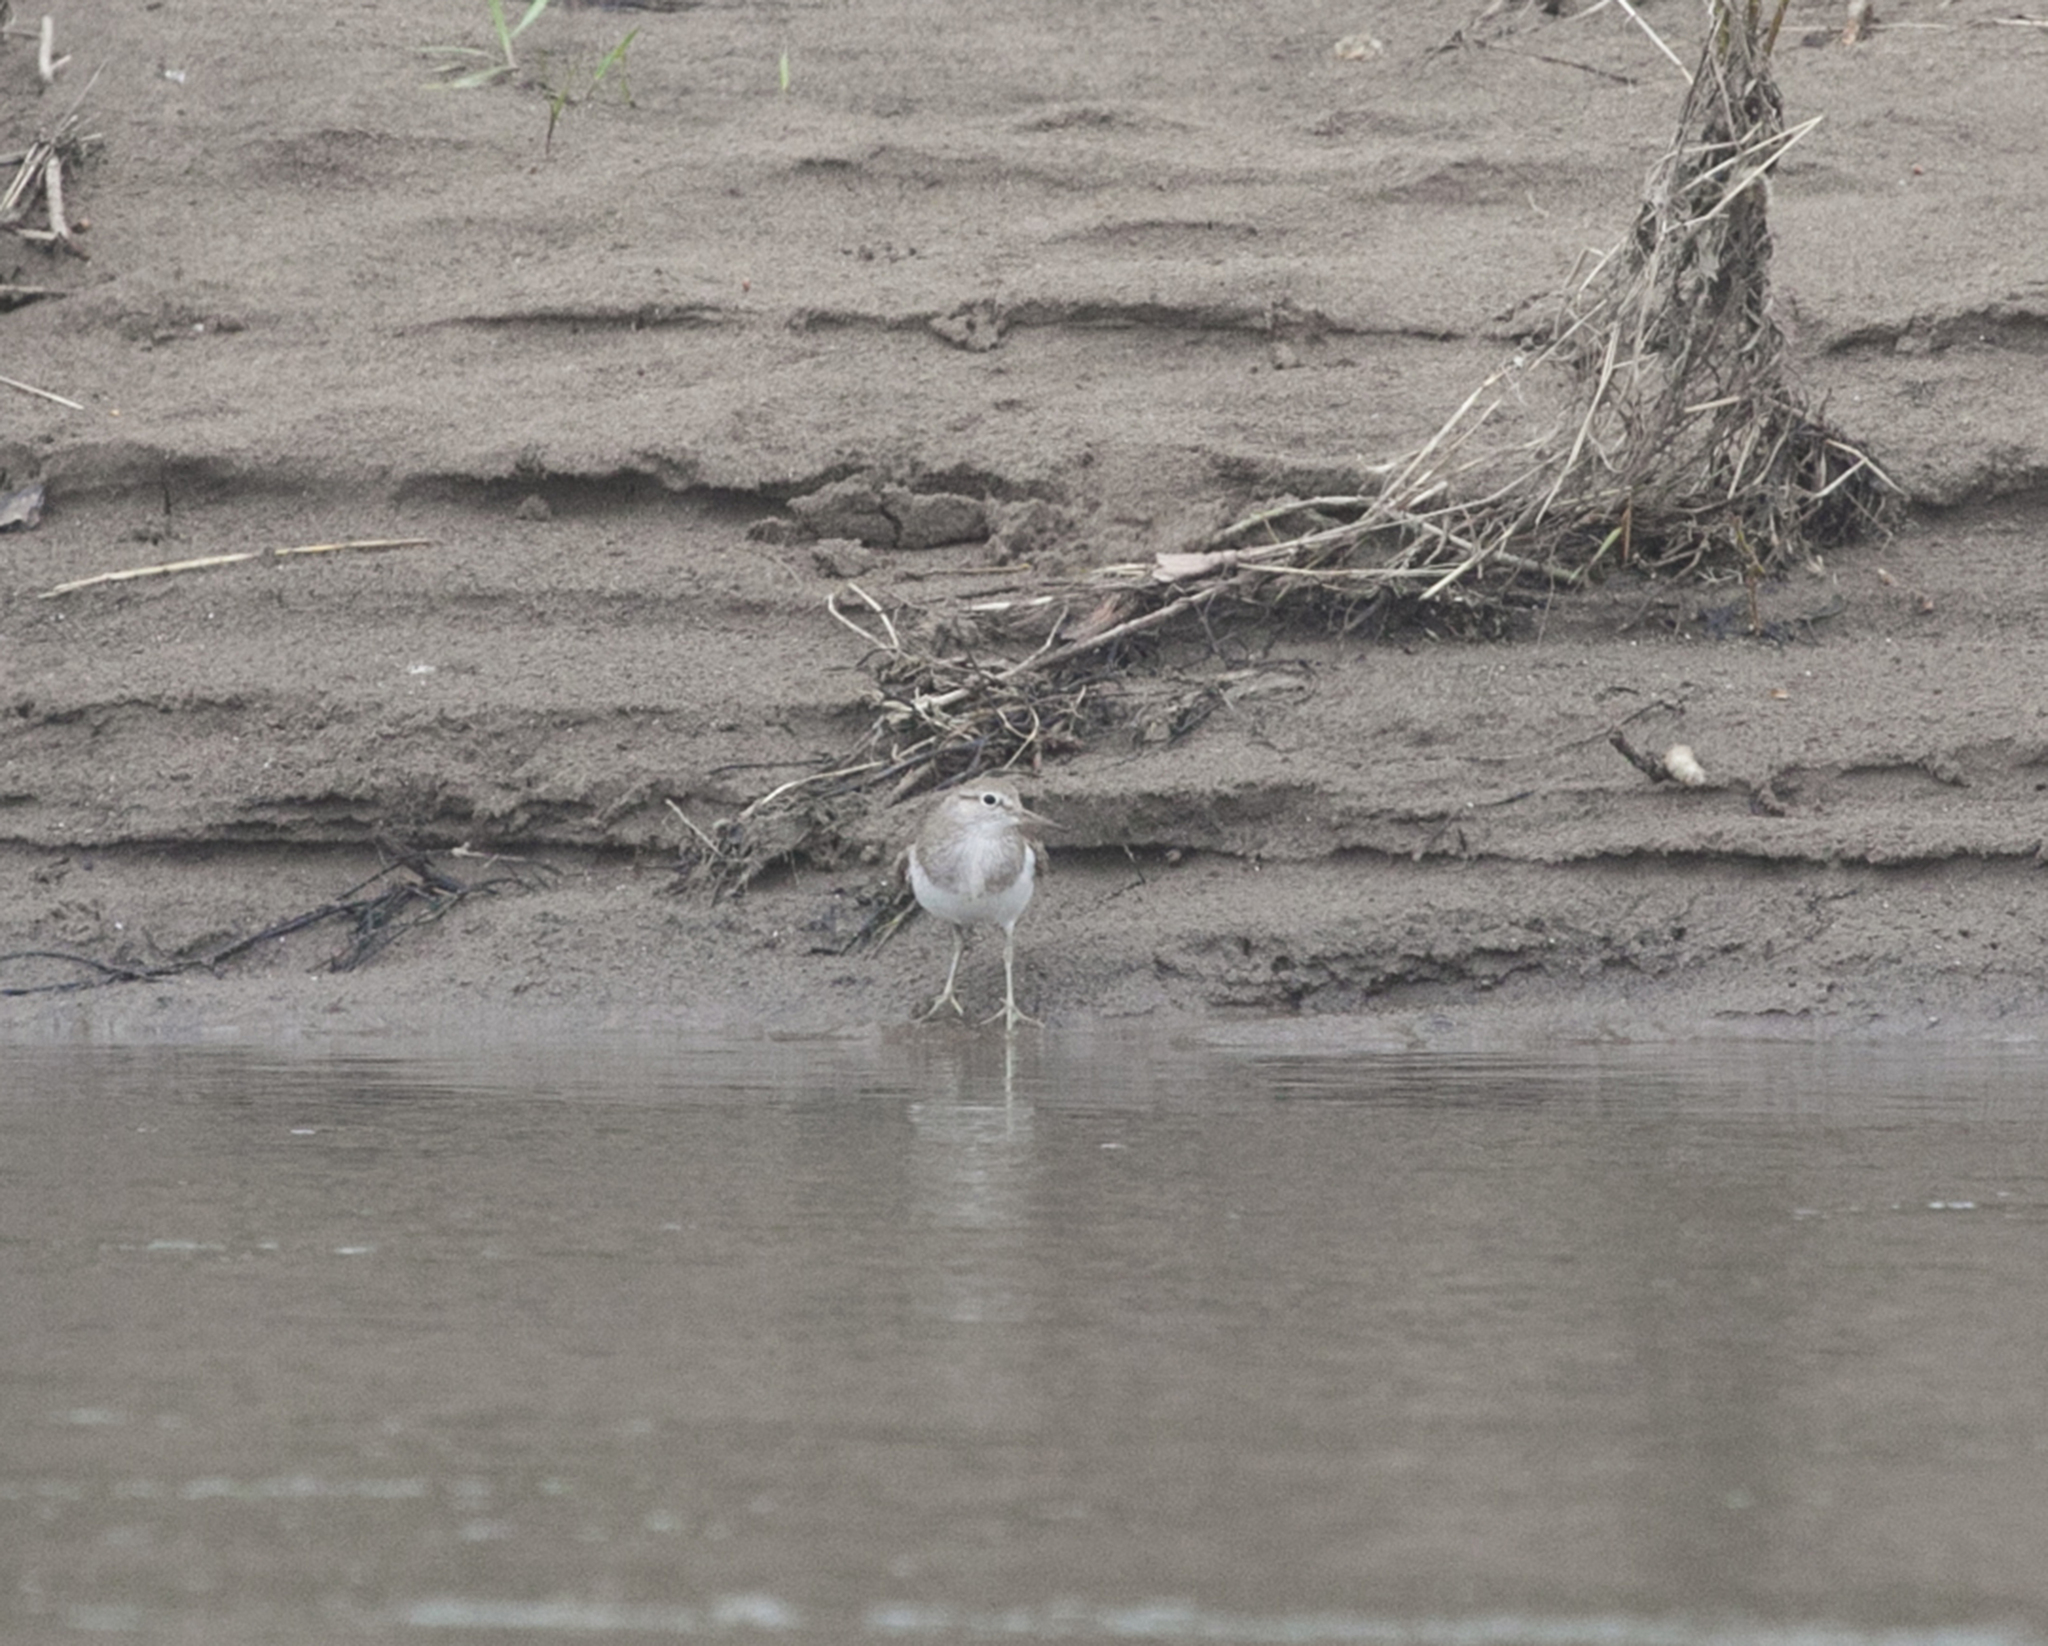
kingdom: Animalia
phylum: Chordata
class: Aves
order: Charadriiformes
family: Scolopacidae
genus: Actitis
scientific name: Actitis hypoleucos
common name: Common sandpiper
